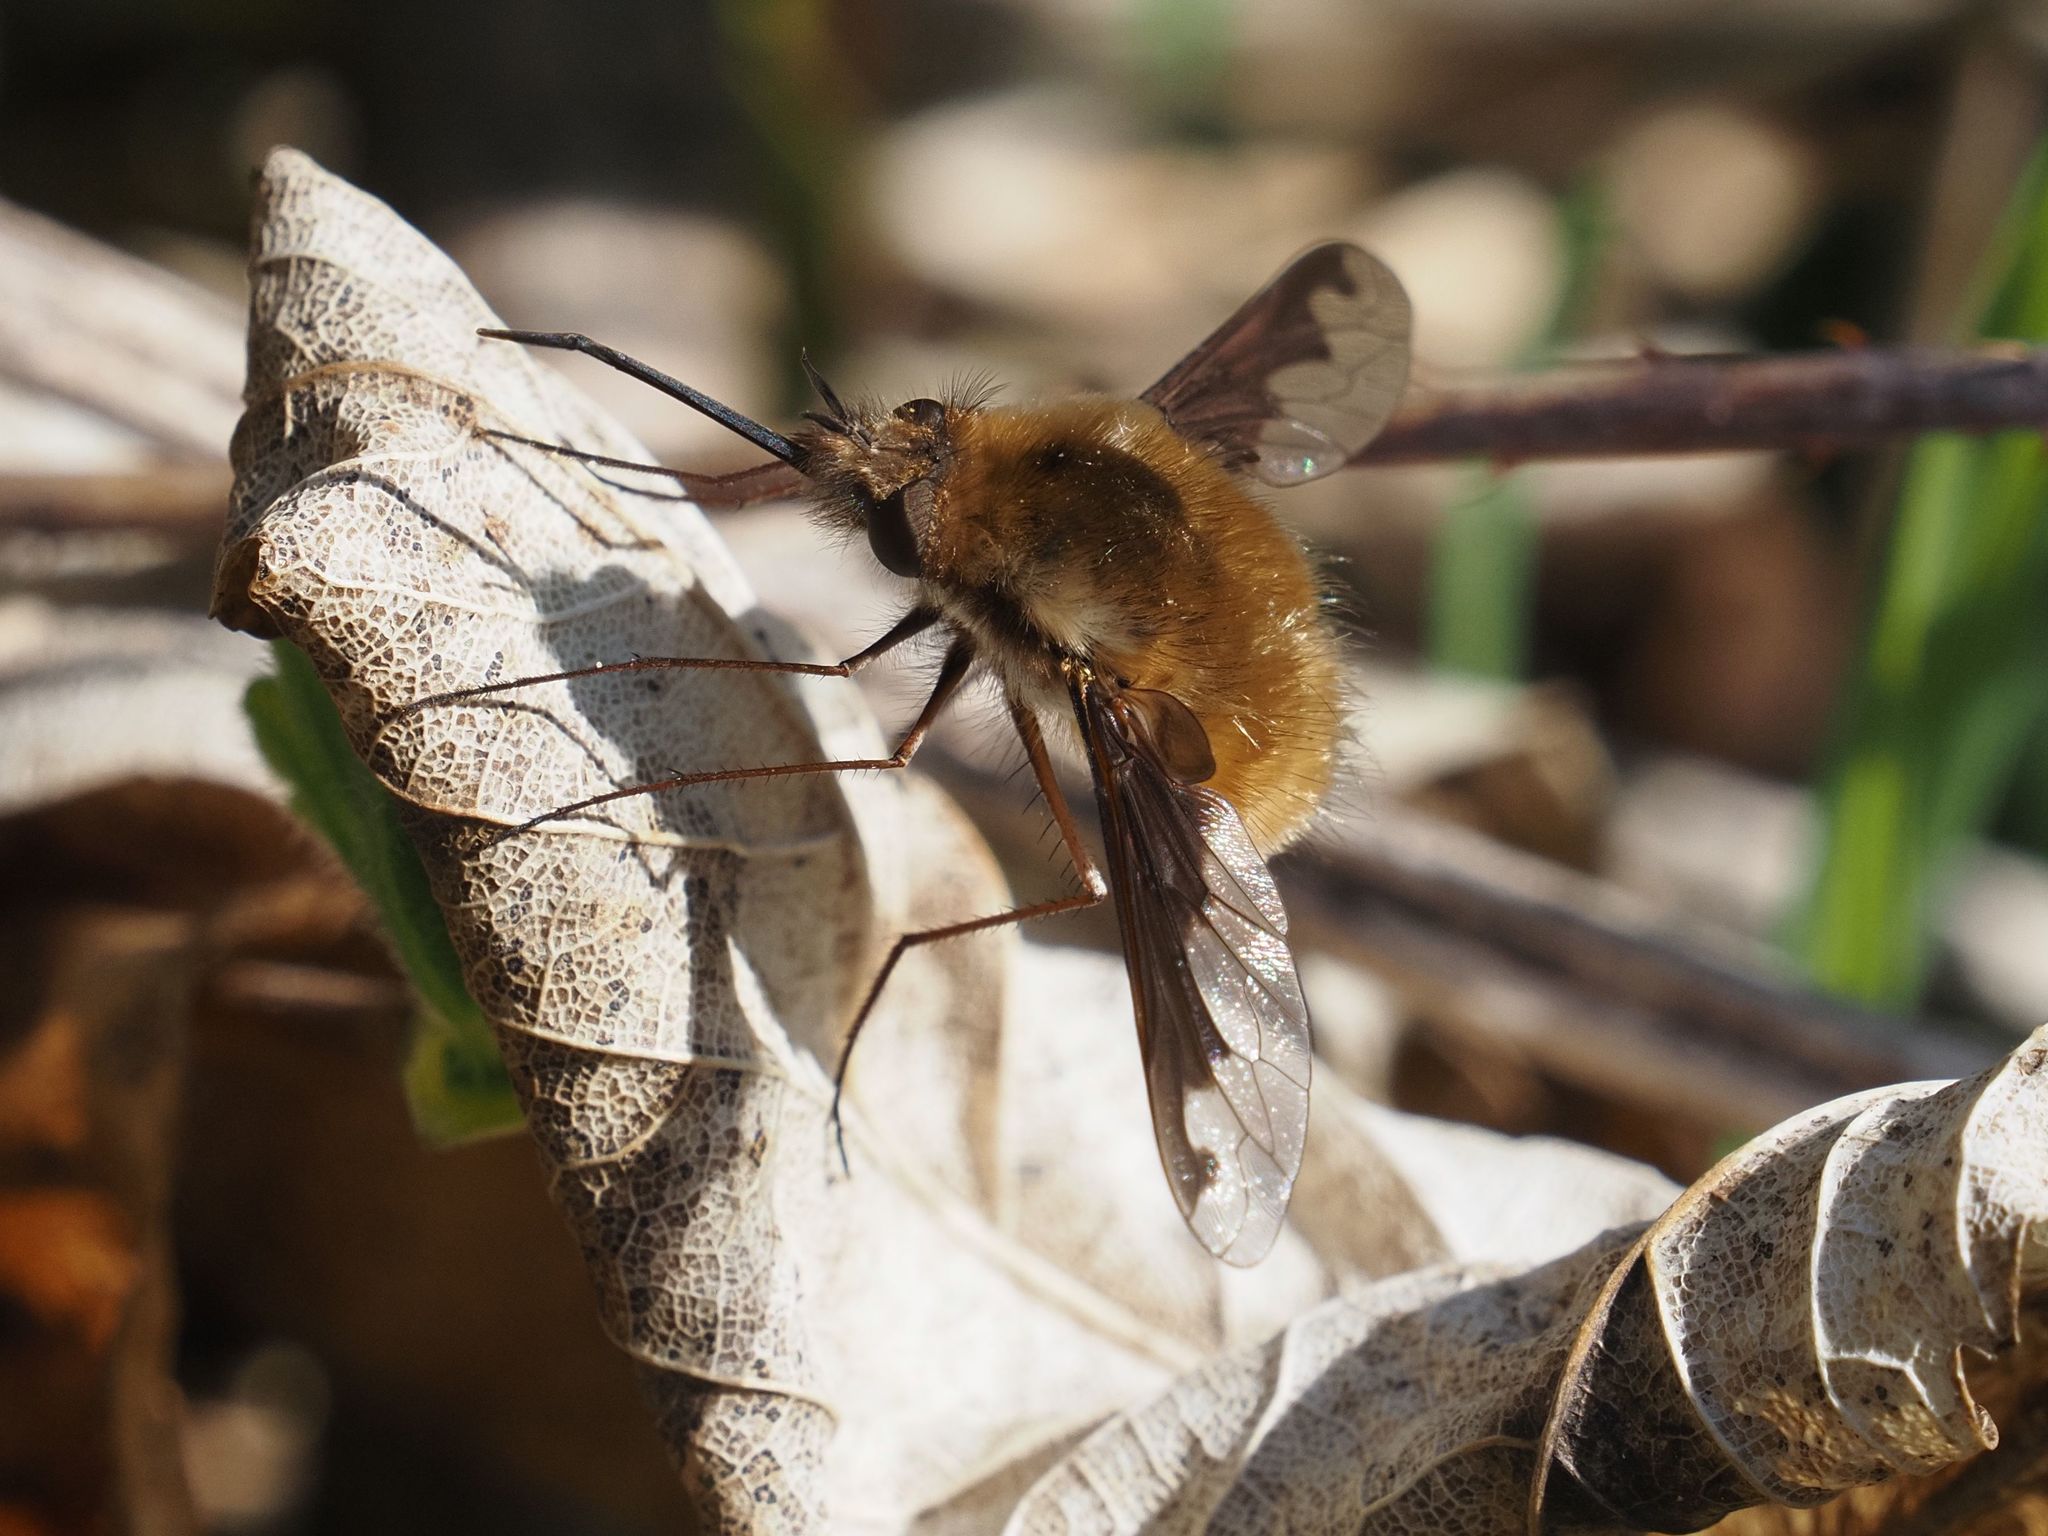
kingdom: Animalia
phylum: Arthropoda
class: Insecta
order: Diptera
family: Bombyliidae
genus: Bombylius
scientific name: Bombylius major
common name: Bee fly
